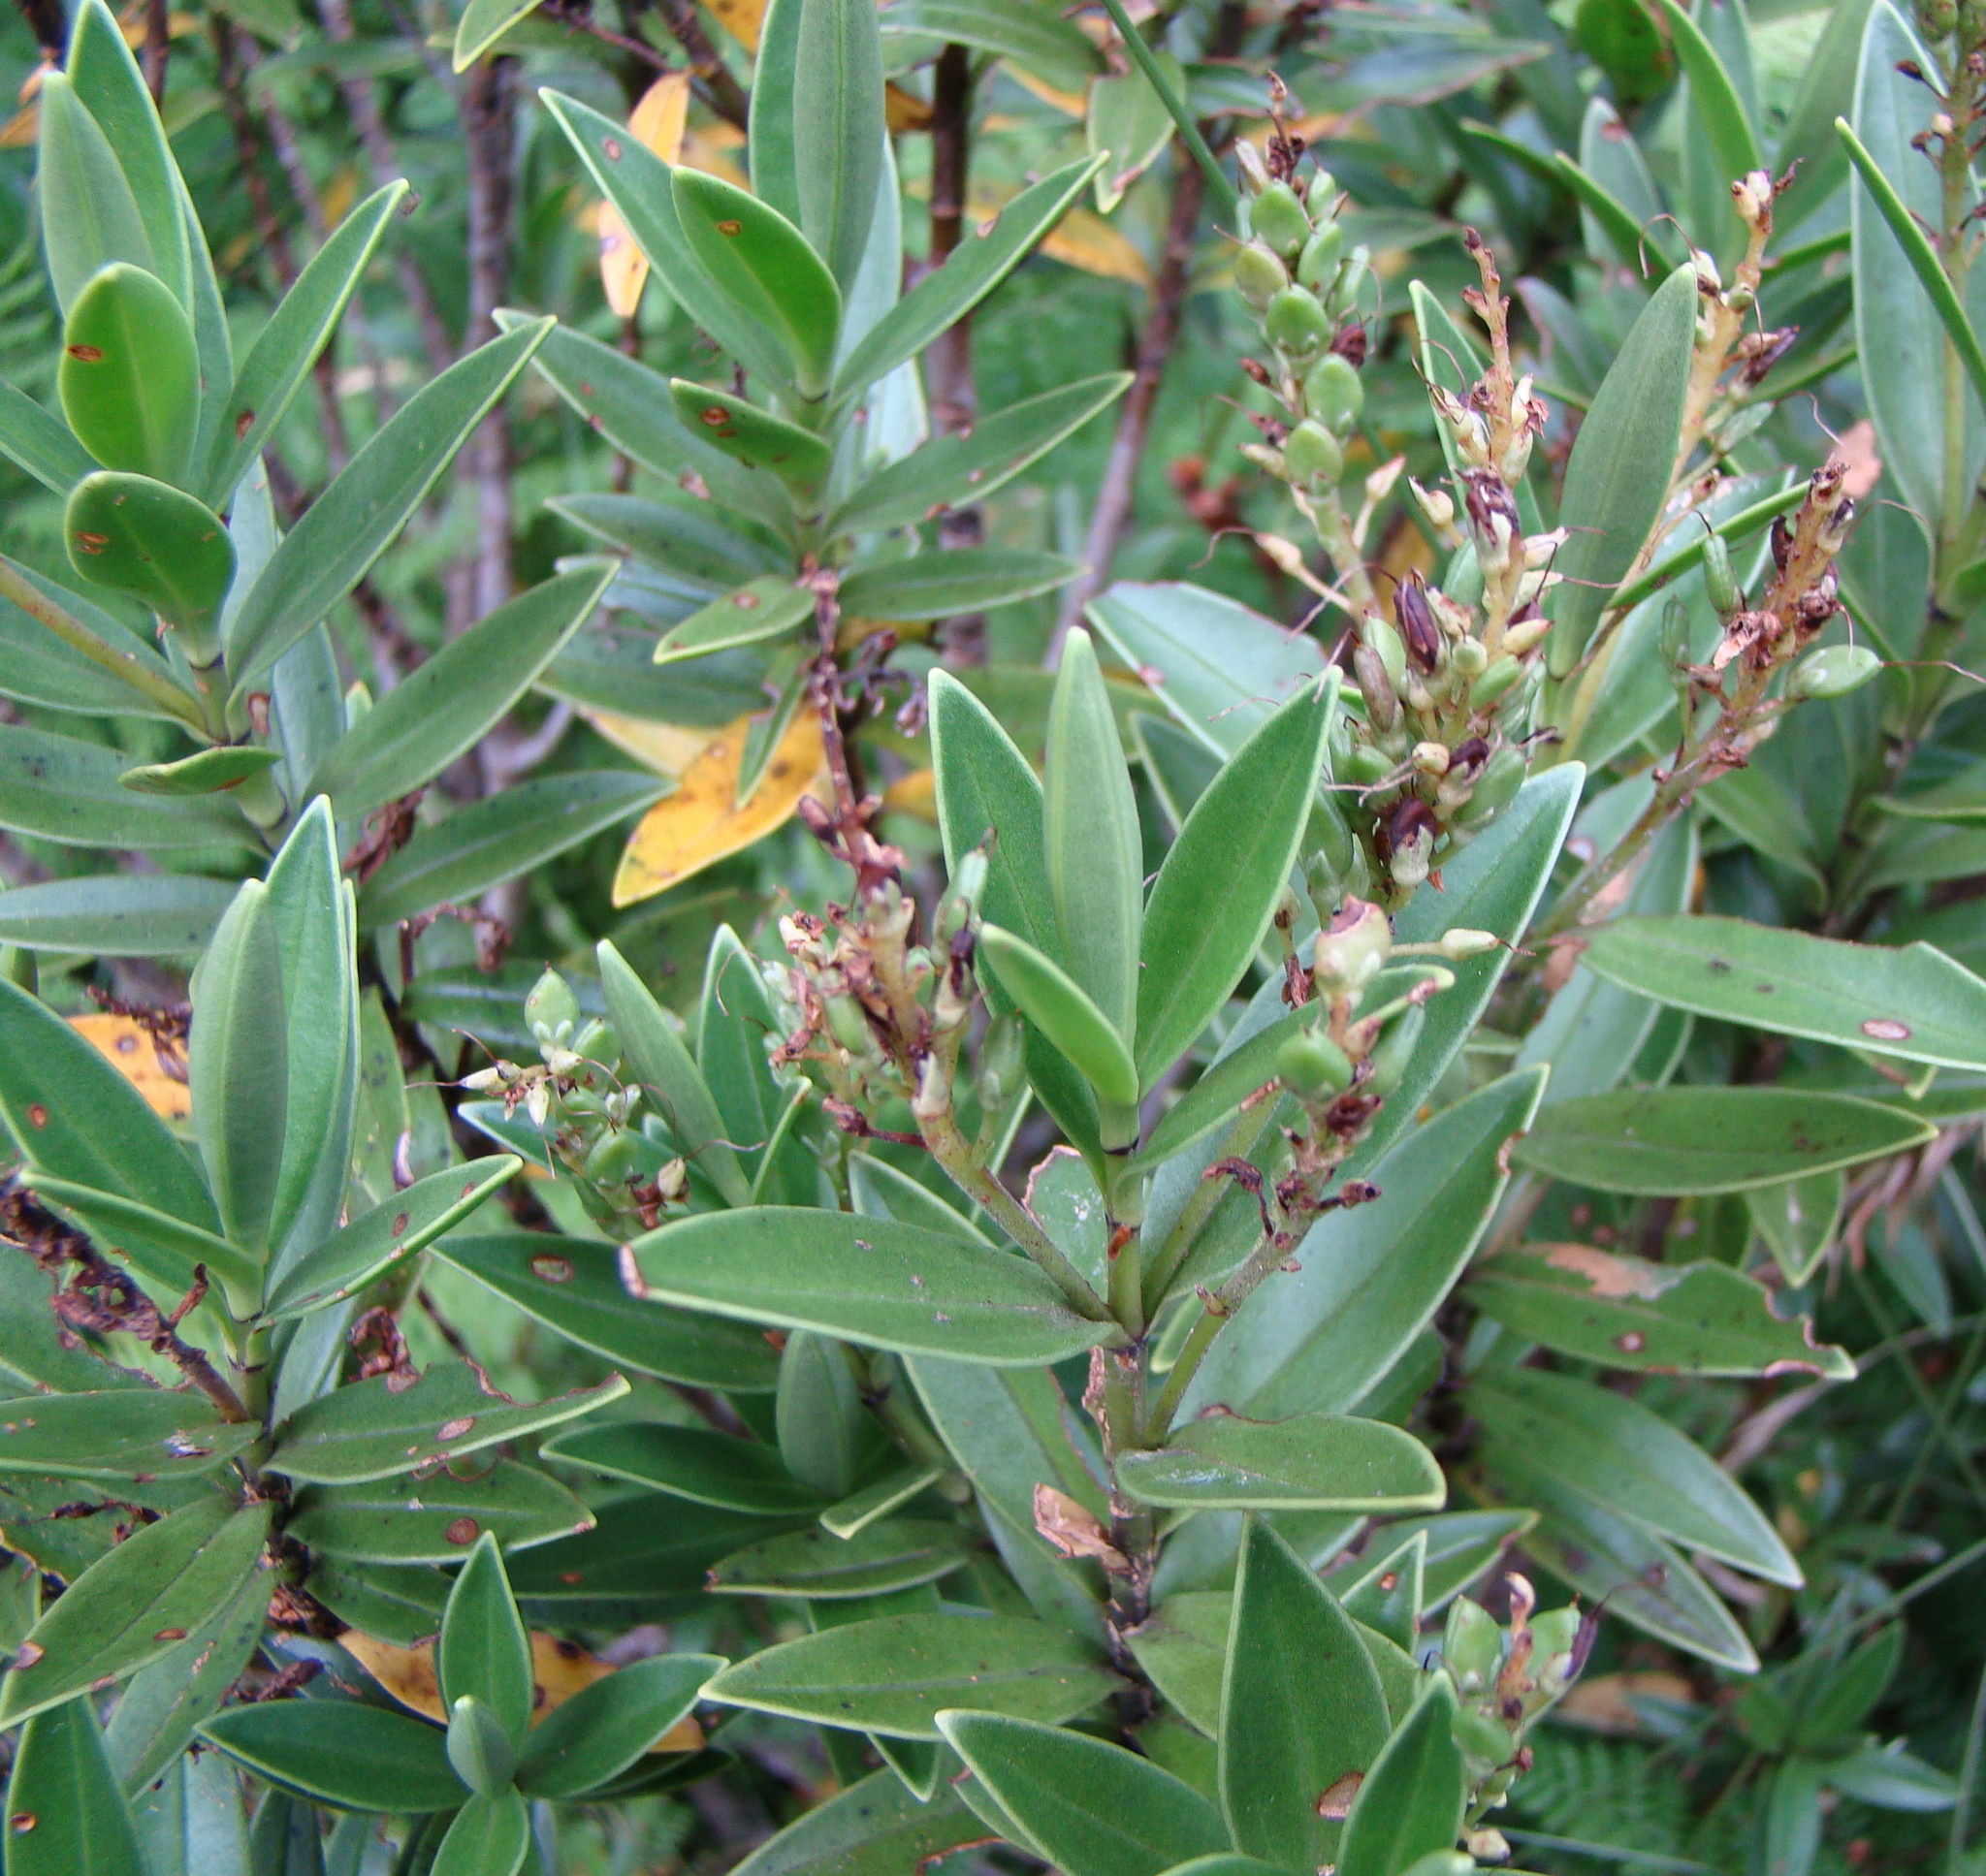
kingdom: Plantae
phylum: Tracheophyta
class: Magnoliopsida
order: Lamiales
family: Plantaginaceae
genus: Veronica
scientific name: Veronica subalpina
